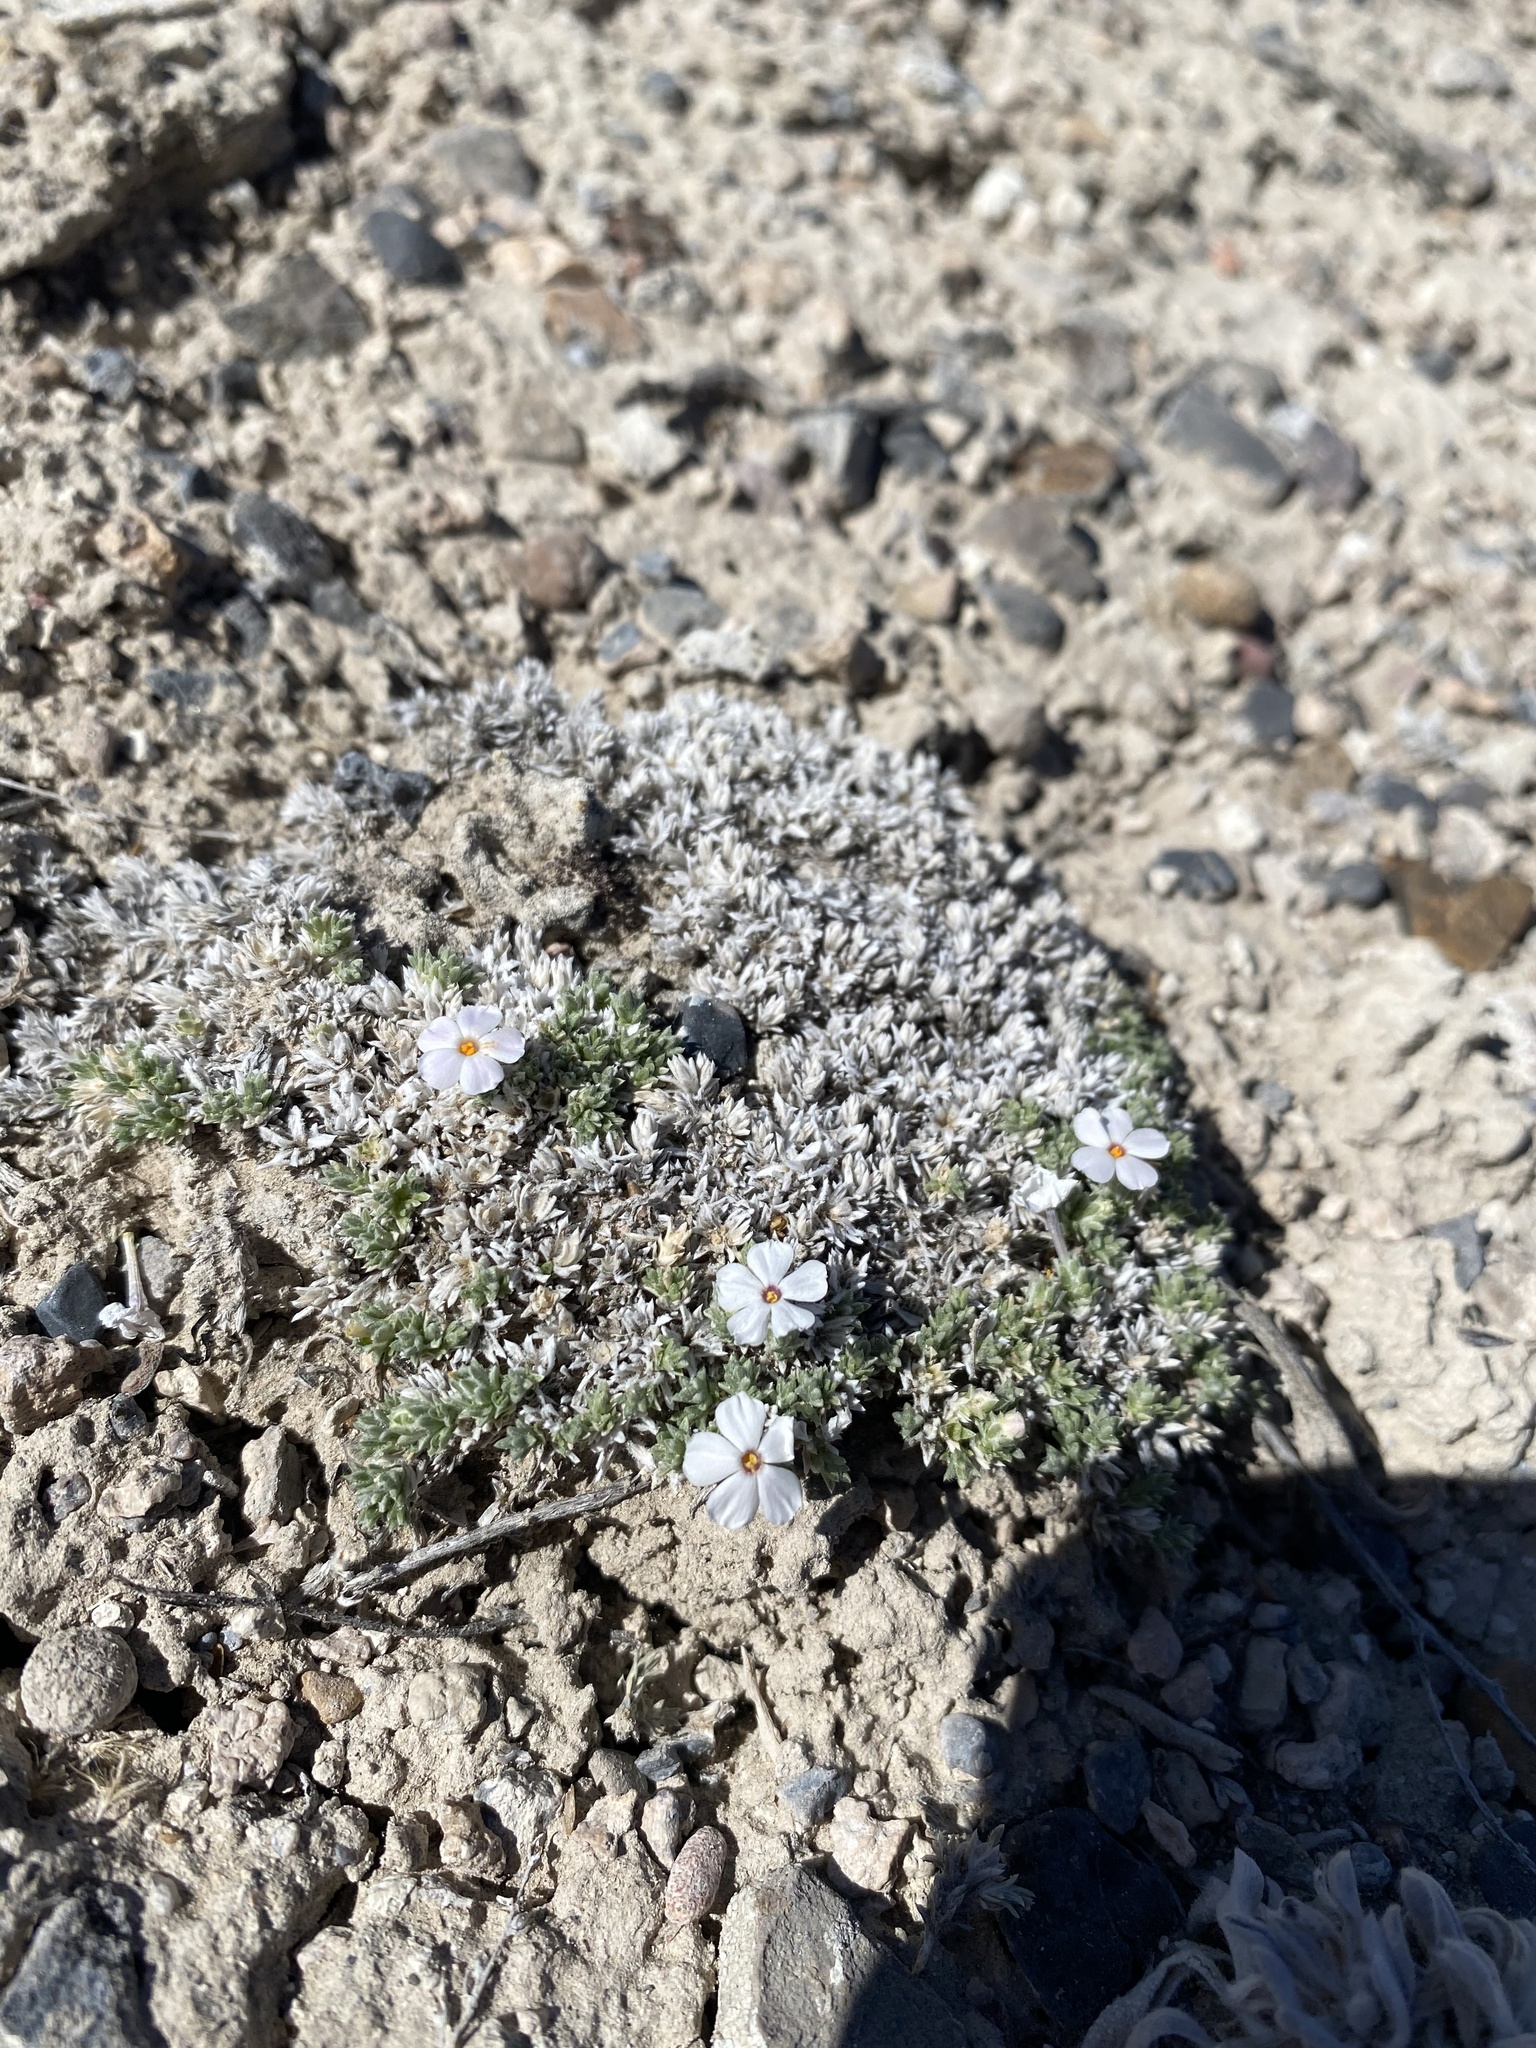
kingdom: Plantae
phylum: Tracheophyta
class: Magnoliopsida
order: Ericales
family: Polemoniaceae
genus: Phlox
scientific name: Phlox griseola
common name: Gray-leaf phlox
